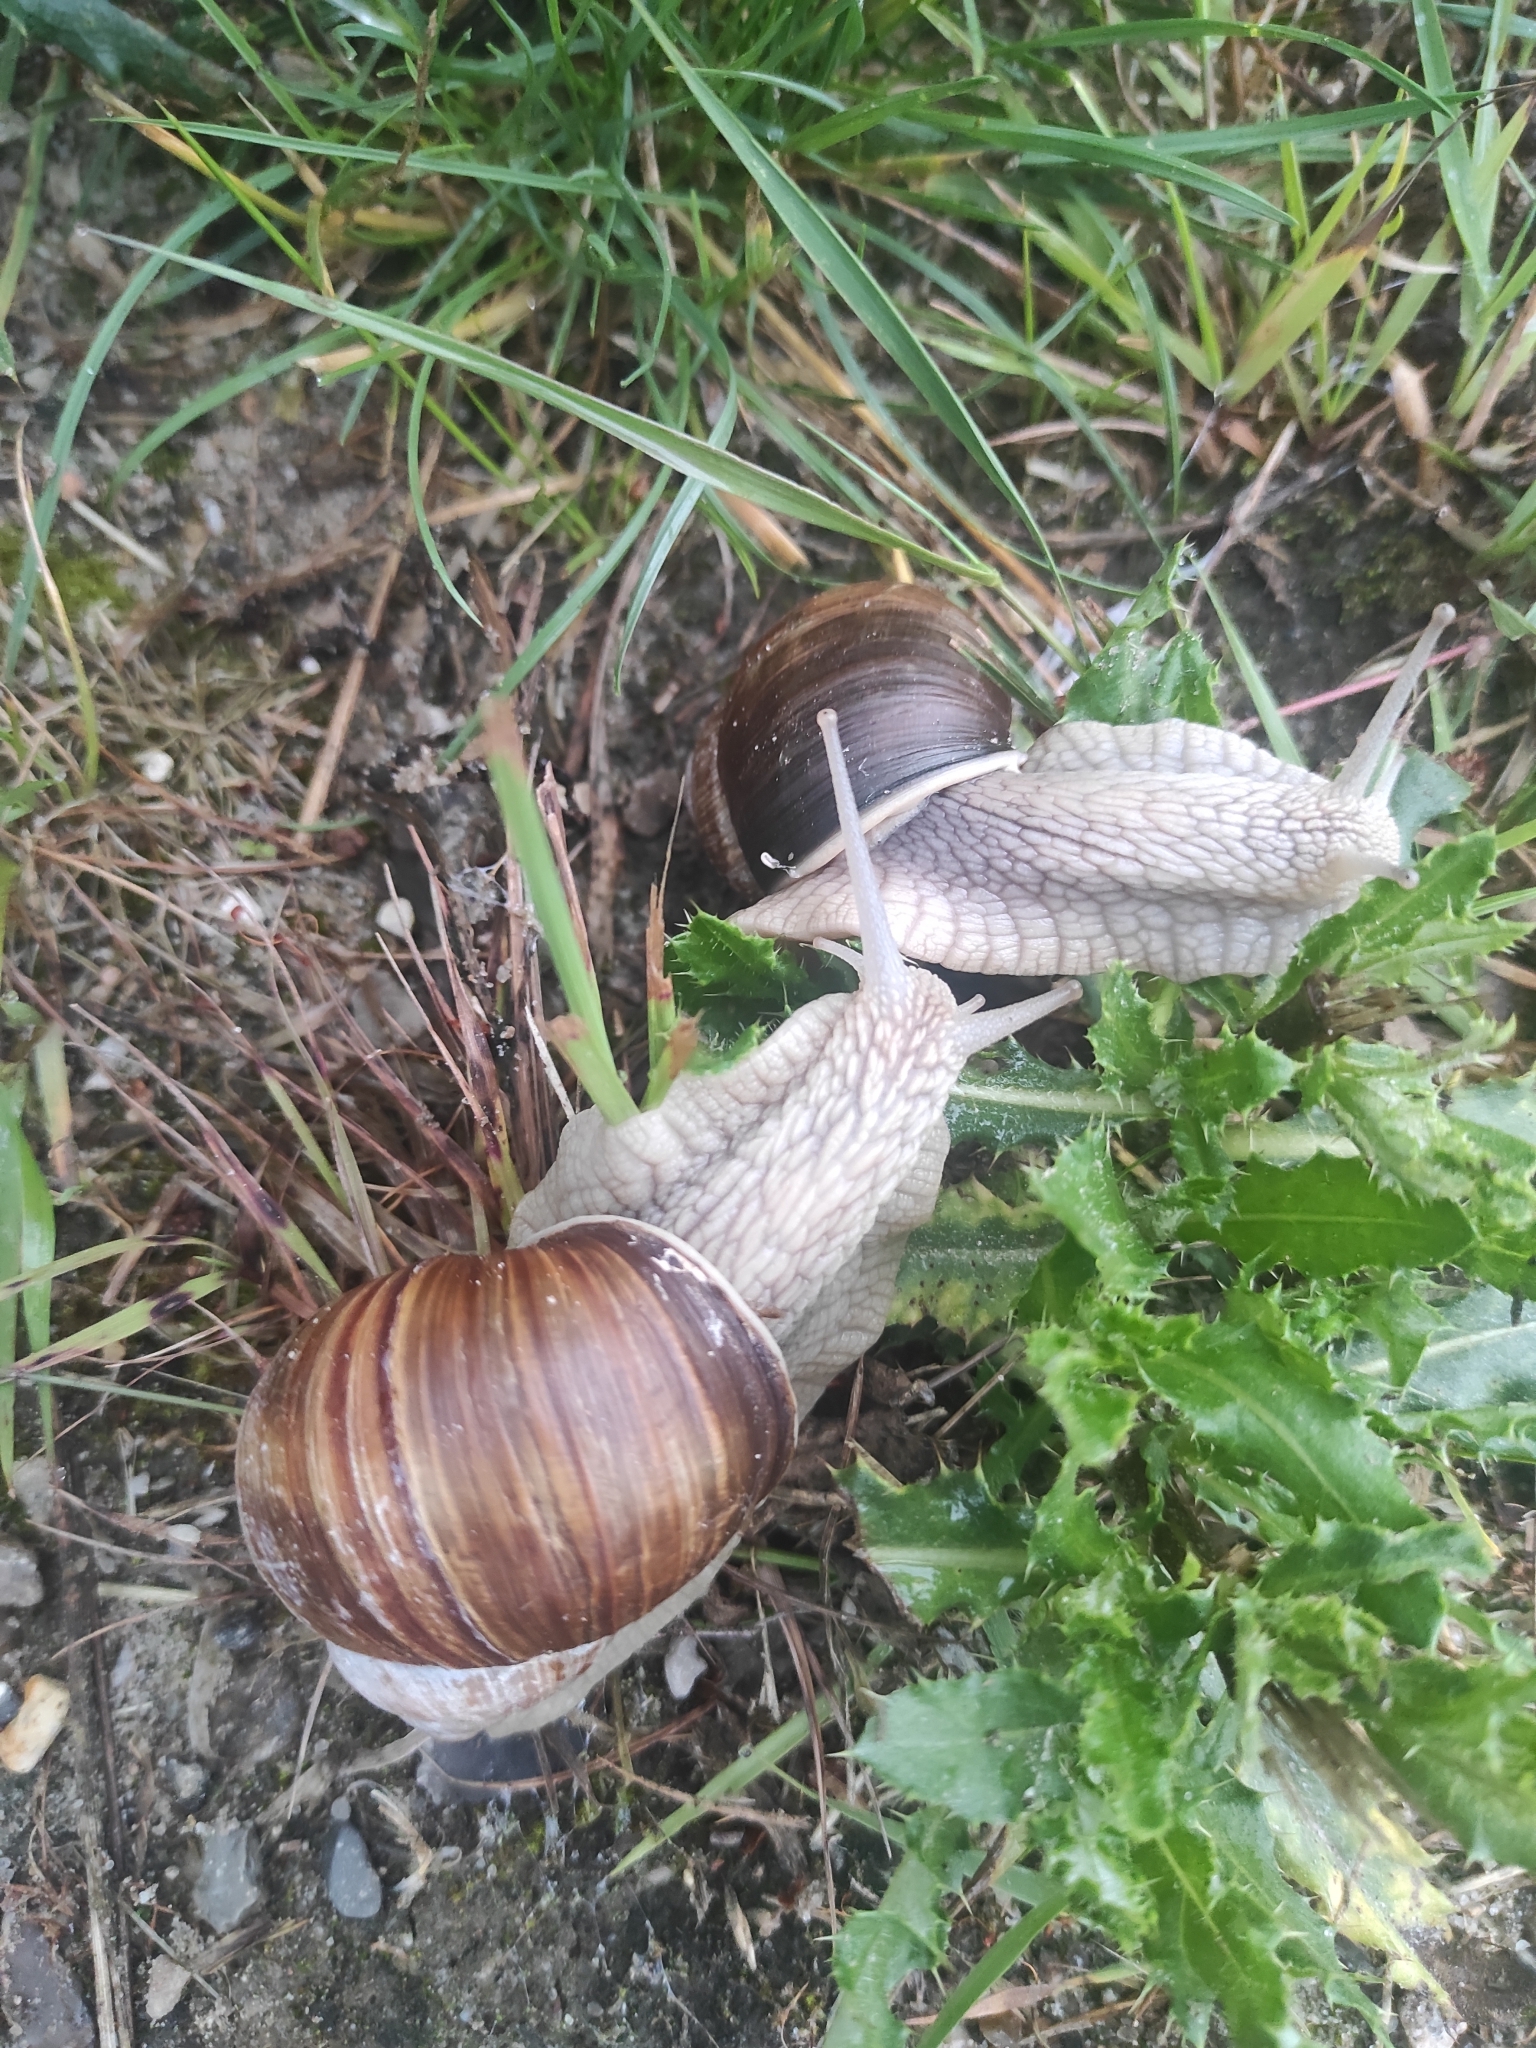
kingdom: Animalia
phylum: Mollusca
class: Gastropoda
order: Stylommatophora
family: Helicidae
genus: Helix
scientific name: Helix pomatia
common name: Roman snail
